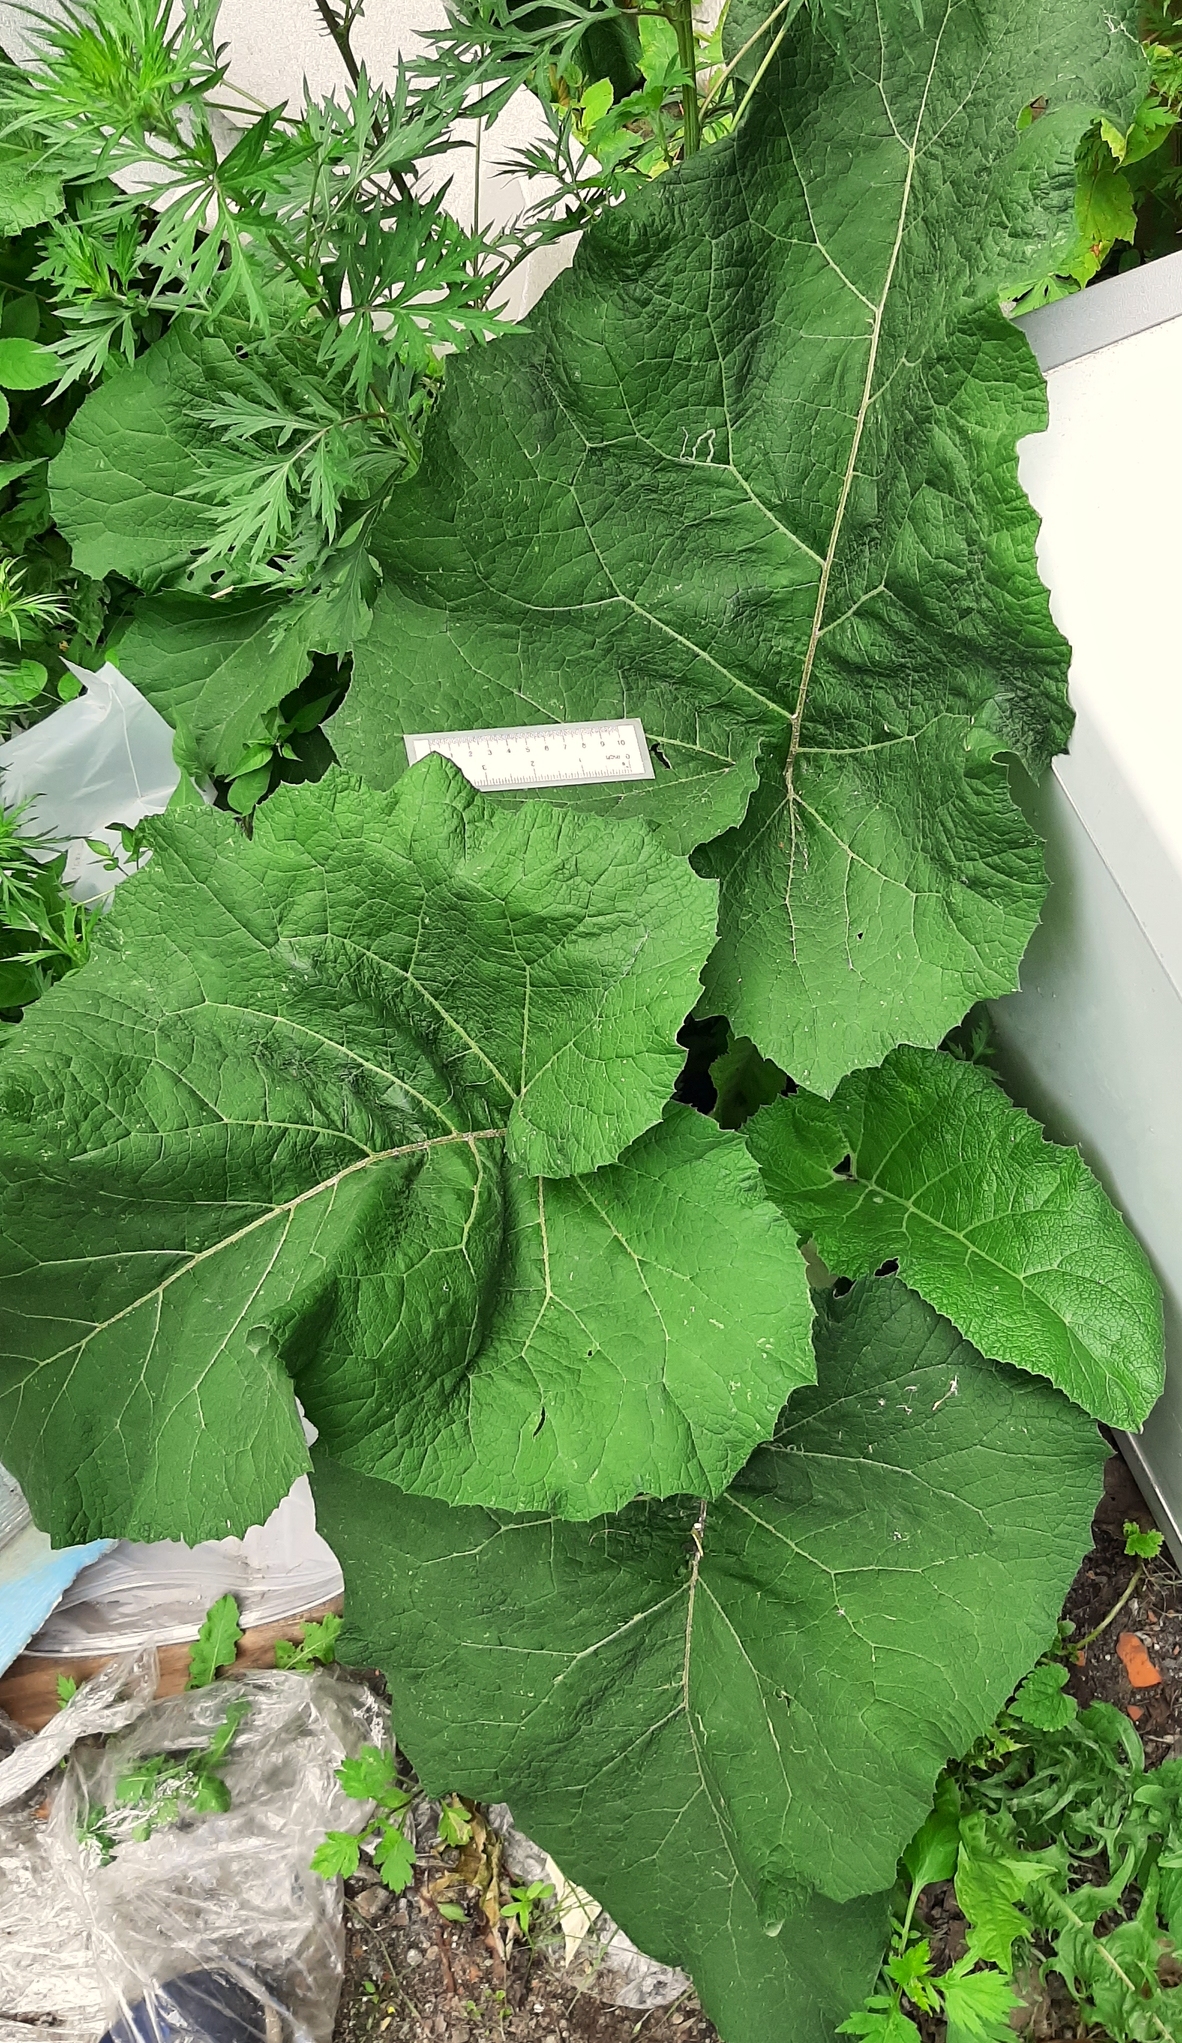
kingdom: Plantae
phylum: Tracheophyta
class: Magnoliopsida
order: Asterales
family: Asteraceae
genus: Arctium
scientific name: Arctium tomentosum
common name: Woolly burdock
